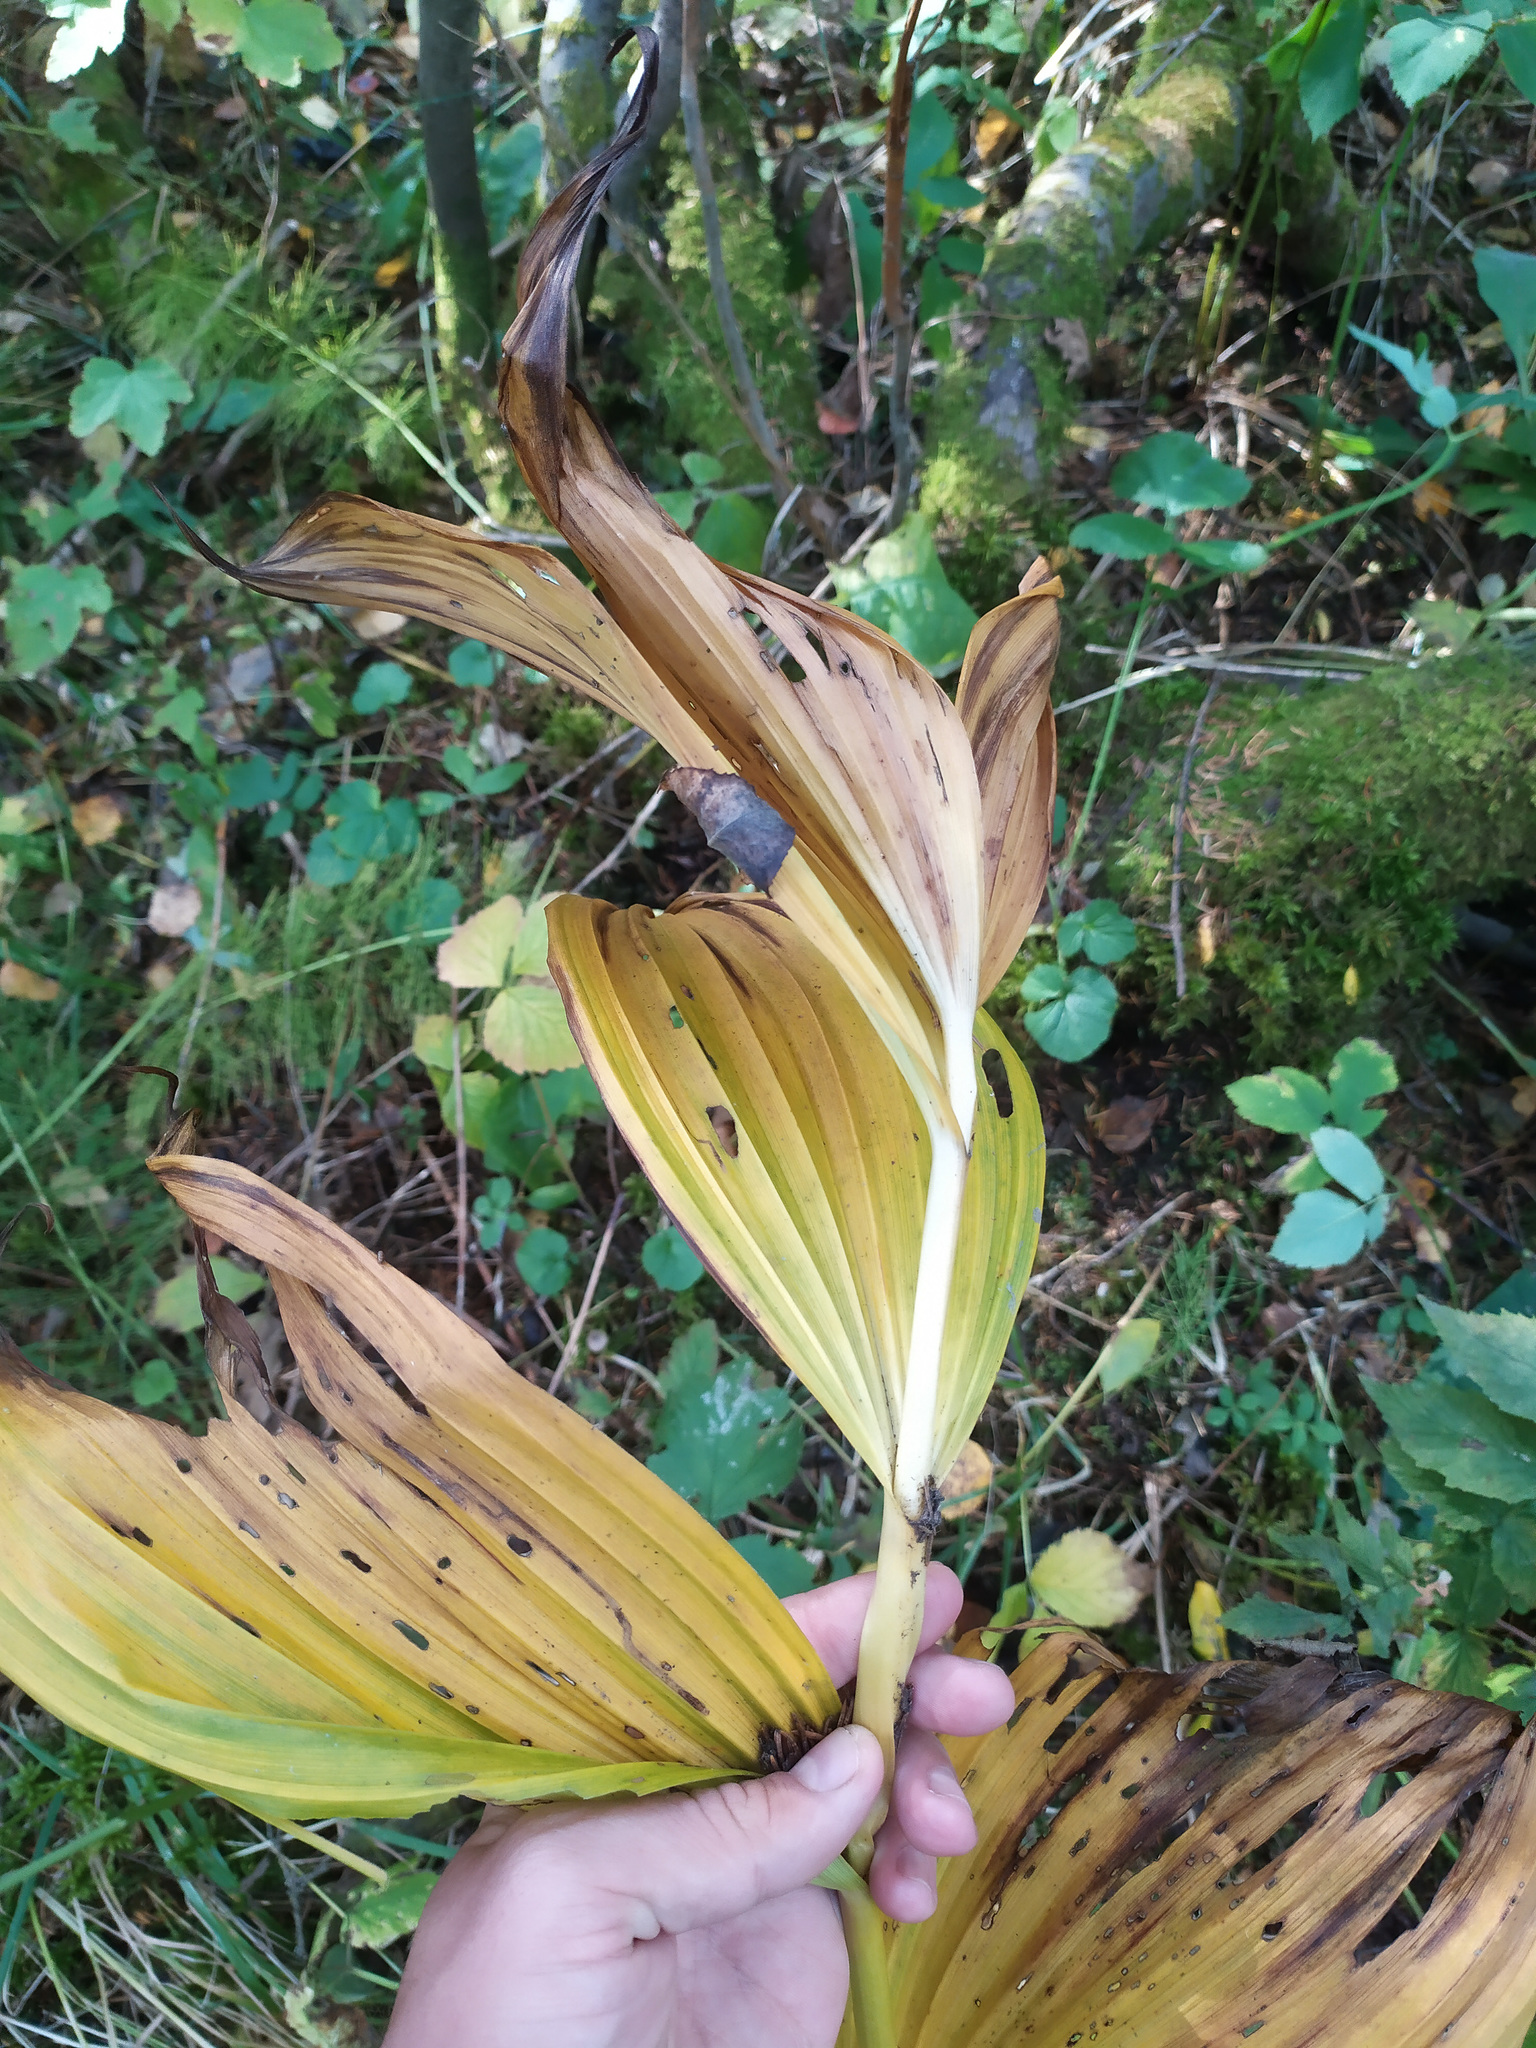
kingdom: Plantae
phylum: Tracheophyta
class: Liliopsida
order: Liliales
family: Melanthiaceae
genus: Veratrum
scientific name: Veratrum lobelianum
